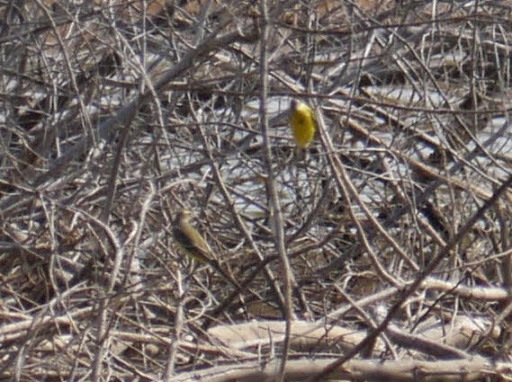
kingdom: Animalia
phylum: Chordata
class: Aves
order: Passeriformes
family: Motacillidae
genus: Motacilla
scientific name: Motacilla flava
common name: Western yellow wagtail
